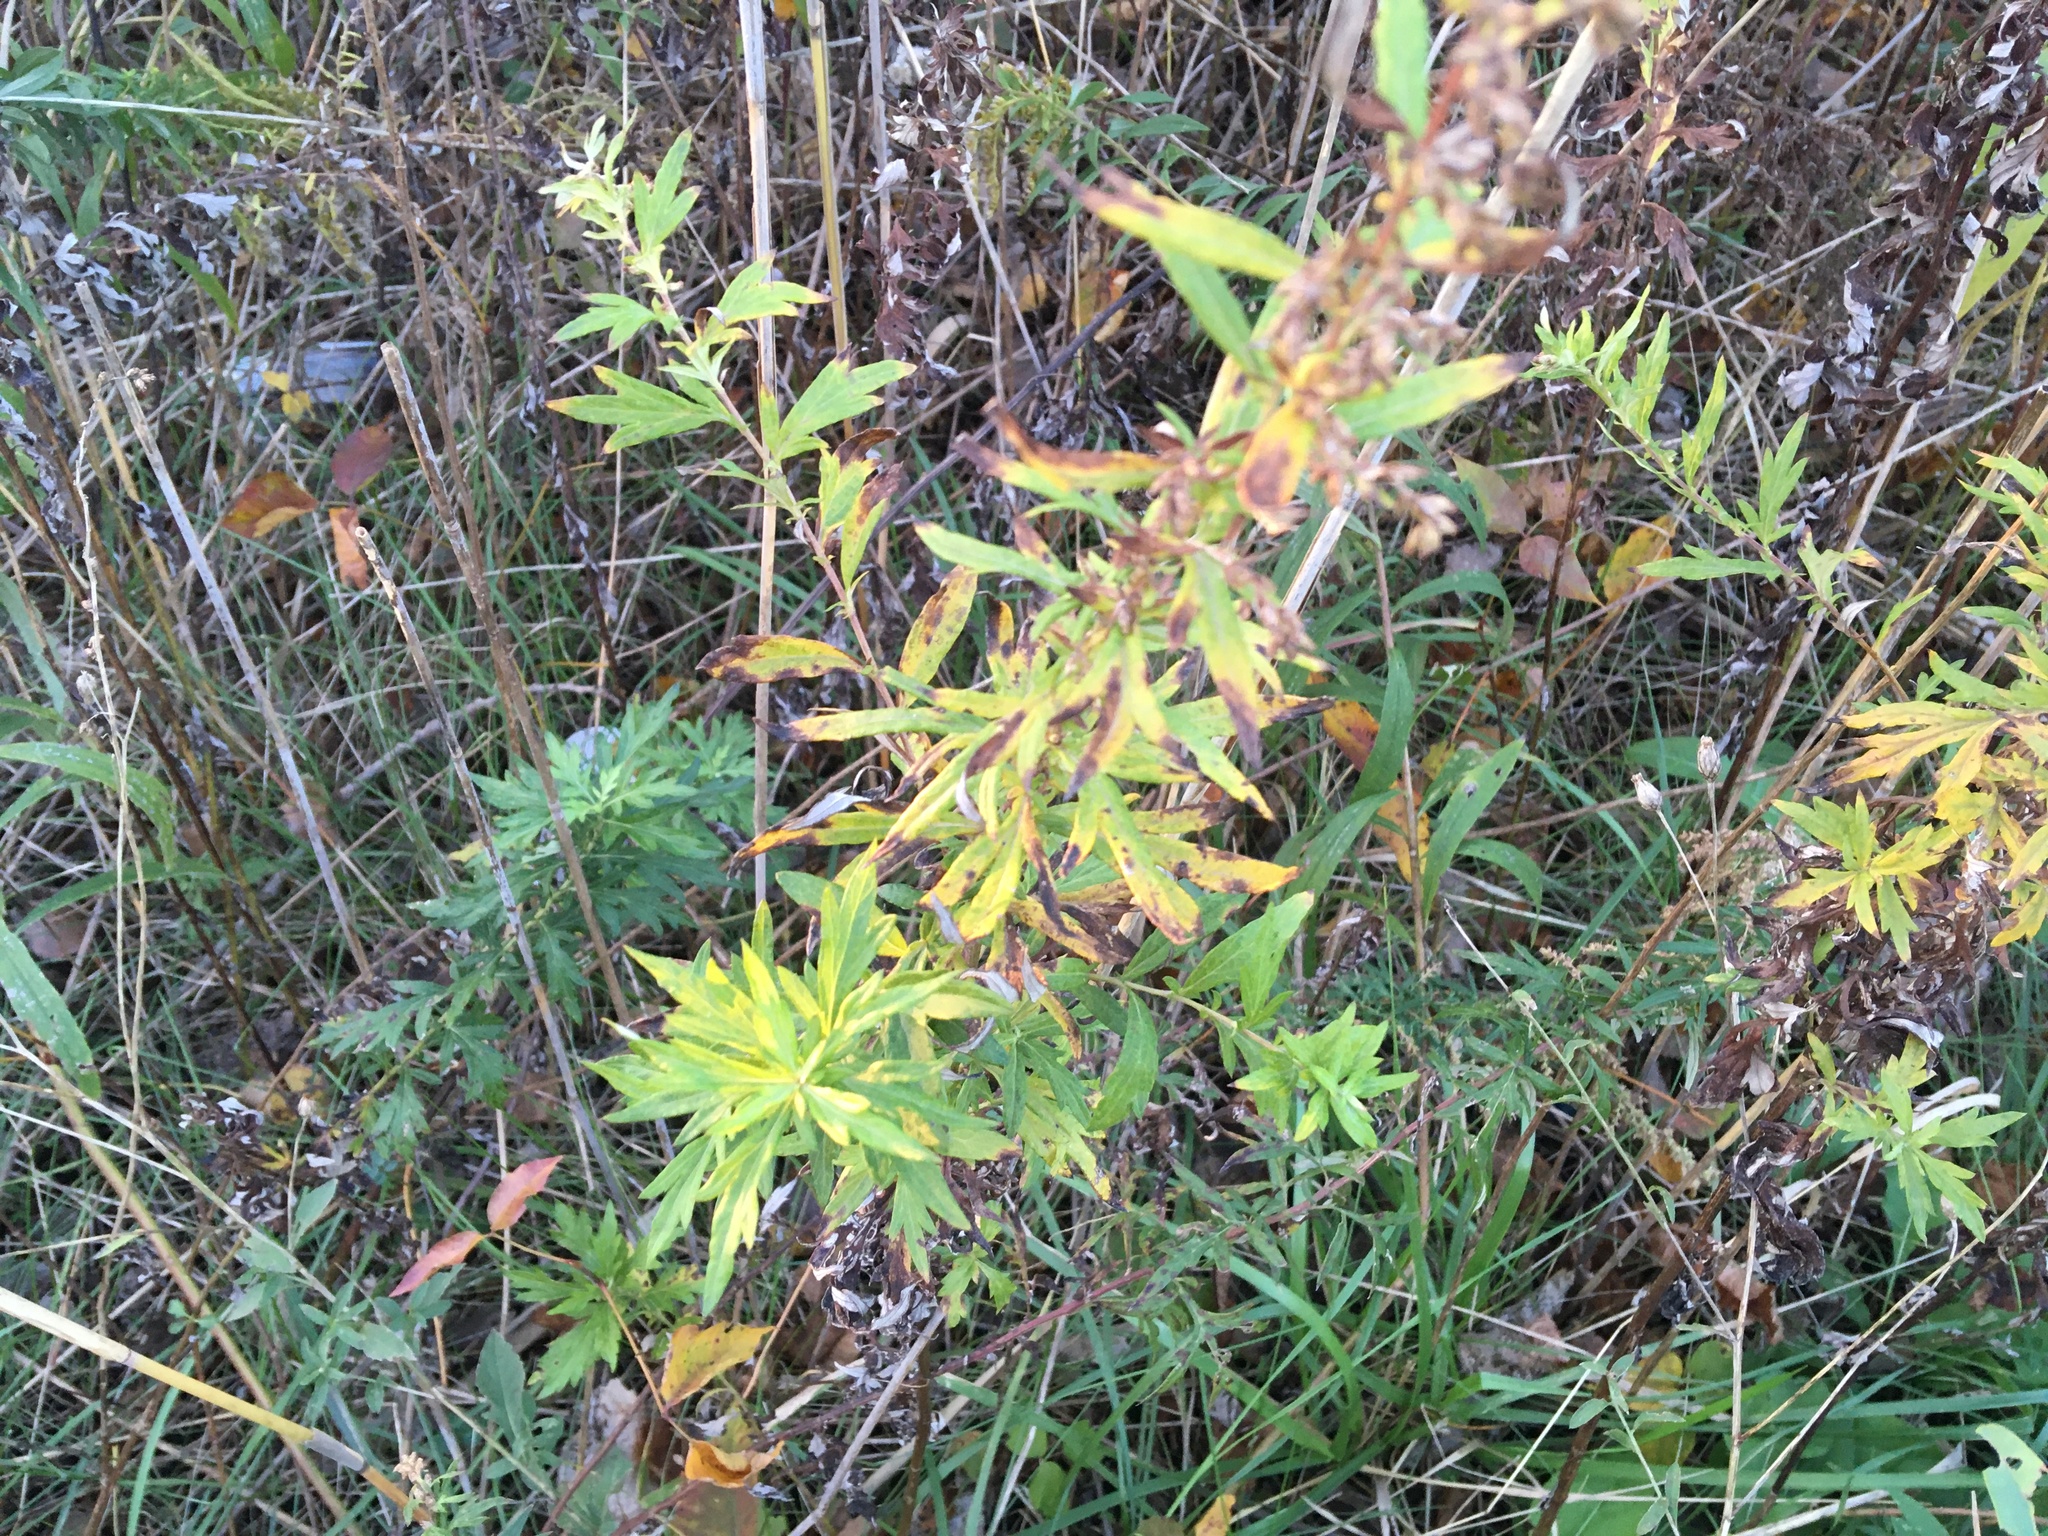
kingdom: Plantae
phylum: Tracheophyta
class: Magnoliopsida
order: Asterales
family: Asteraceae
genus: Artemisia
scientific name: Artemisia vulgaris
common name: Mugwort
